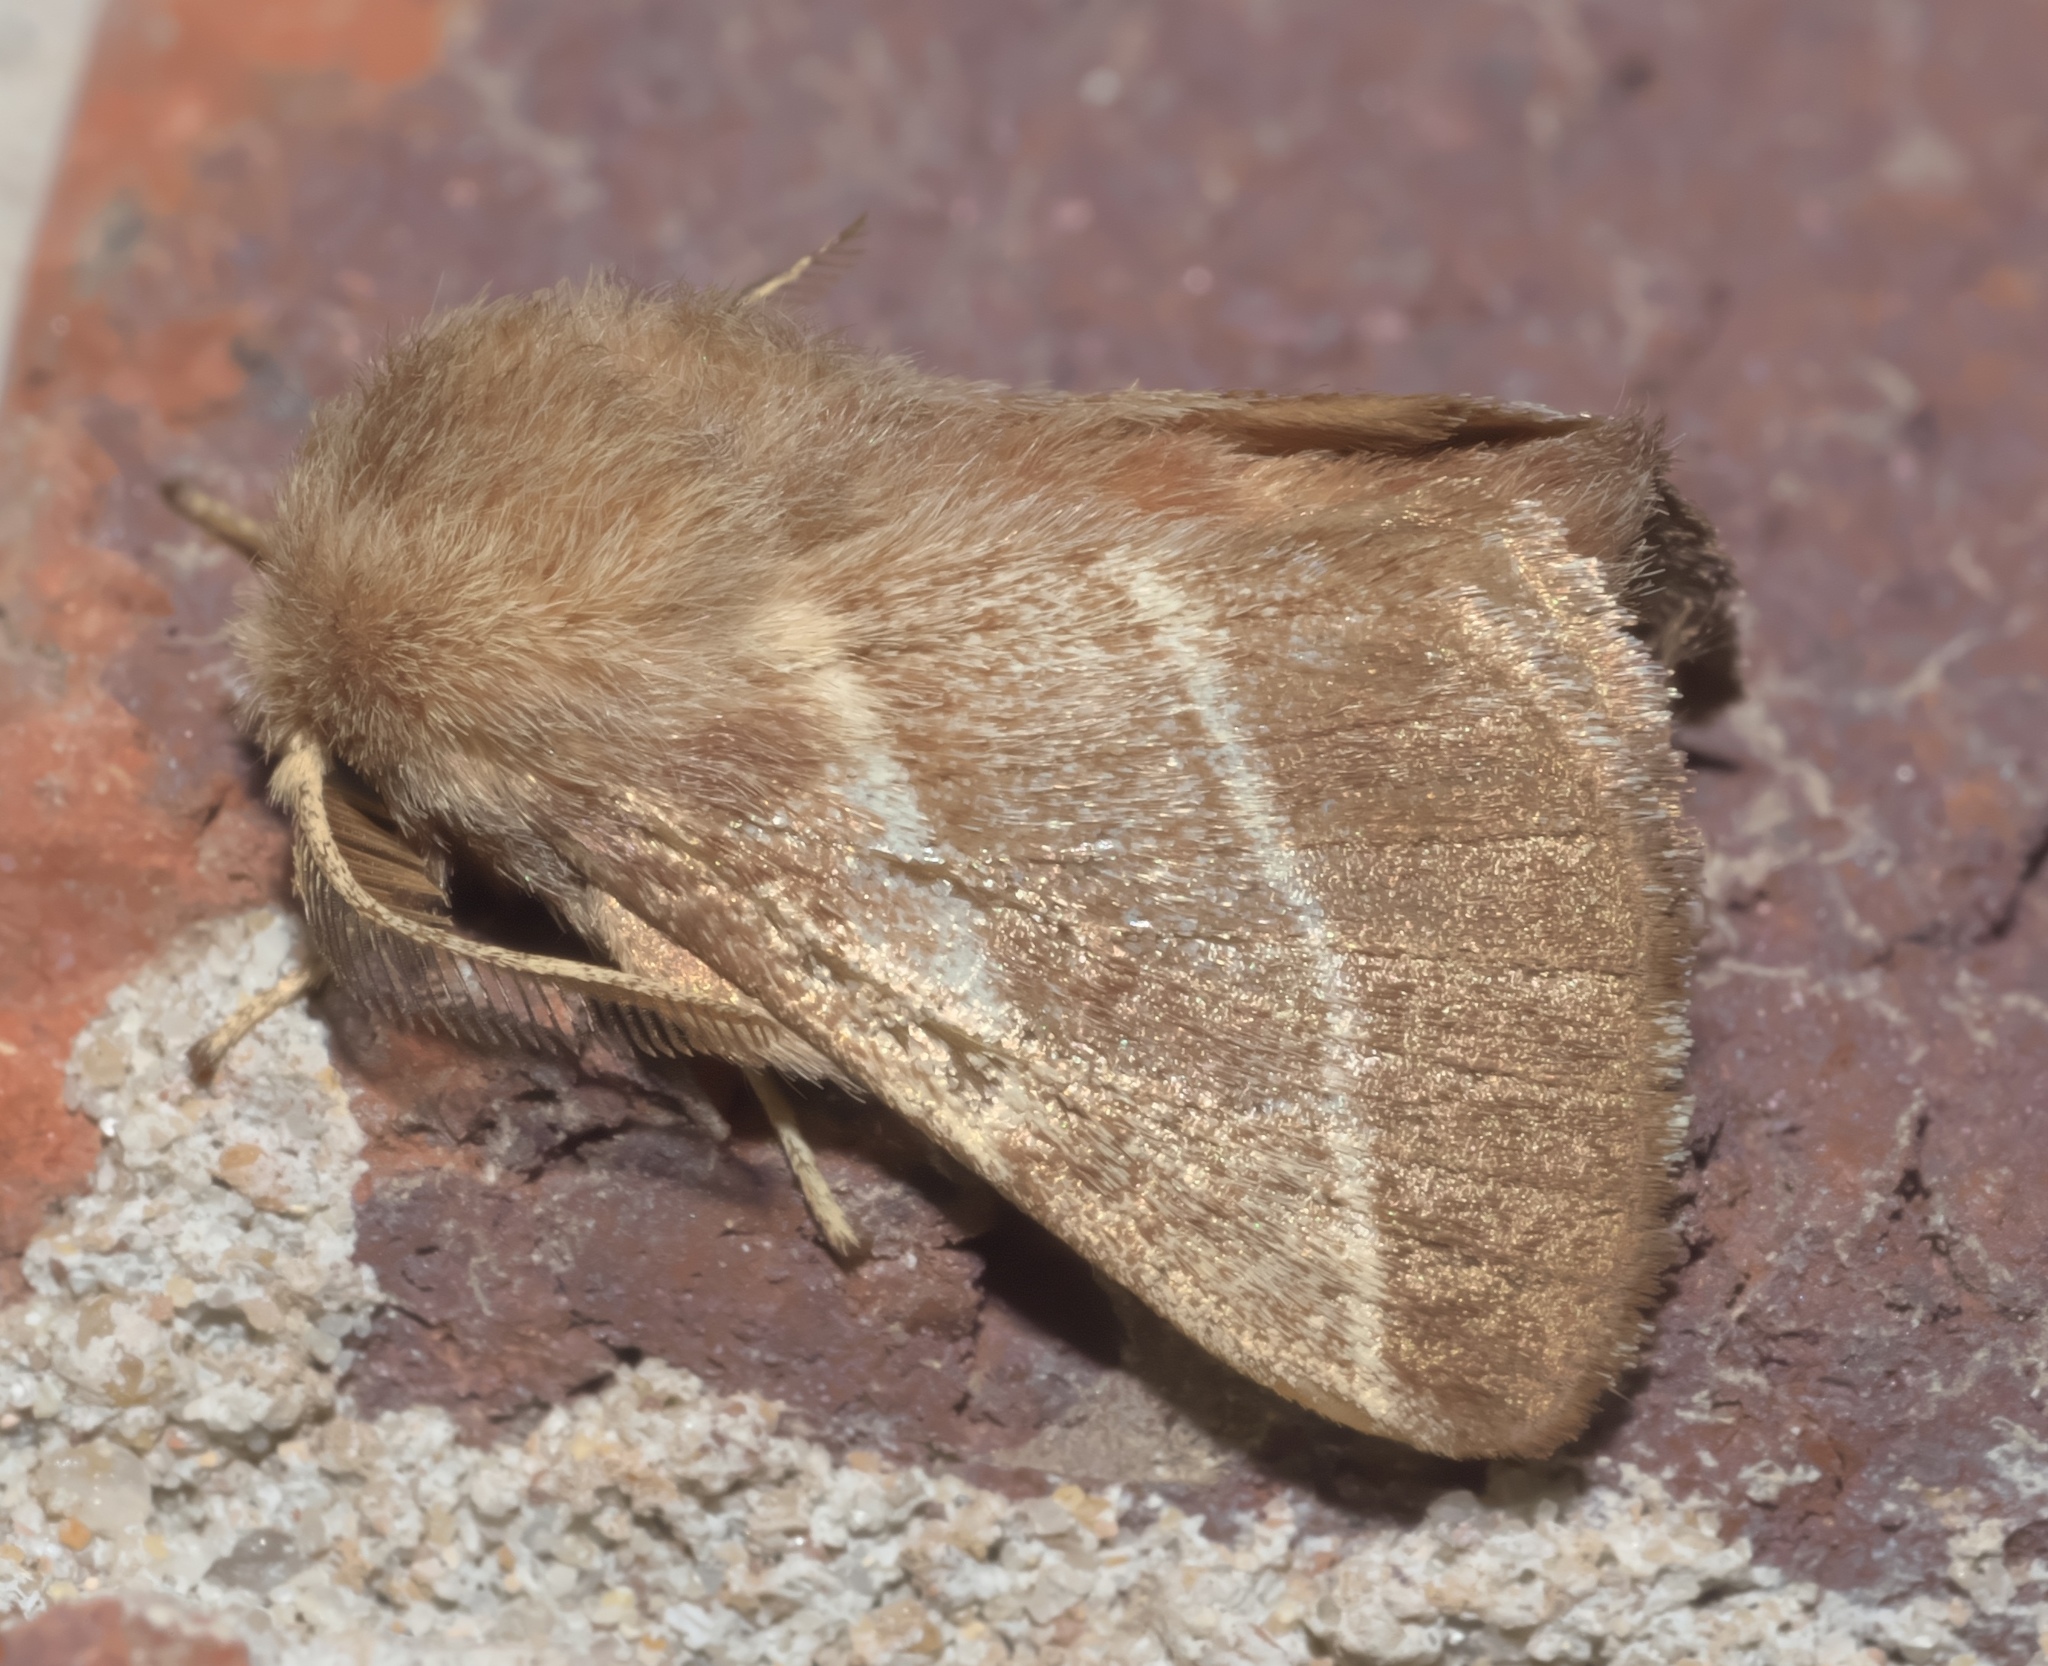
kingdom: Animalia
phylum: Arthropoda
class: Insecta
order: Lepidoptera
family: Lasiocampidae
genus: Malacosoma
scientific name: Malacosoma americana
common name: Eastern tent caterpillar moth
